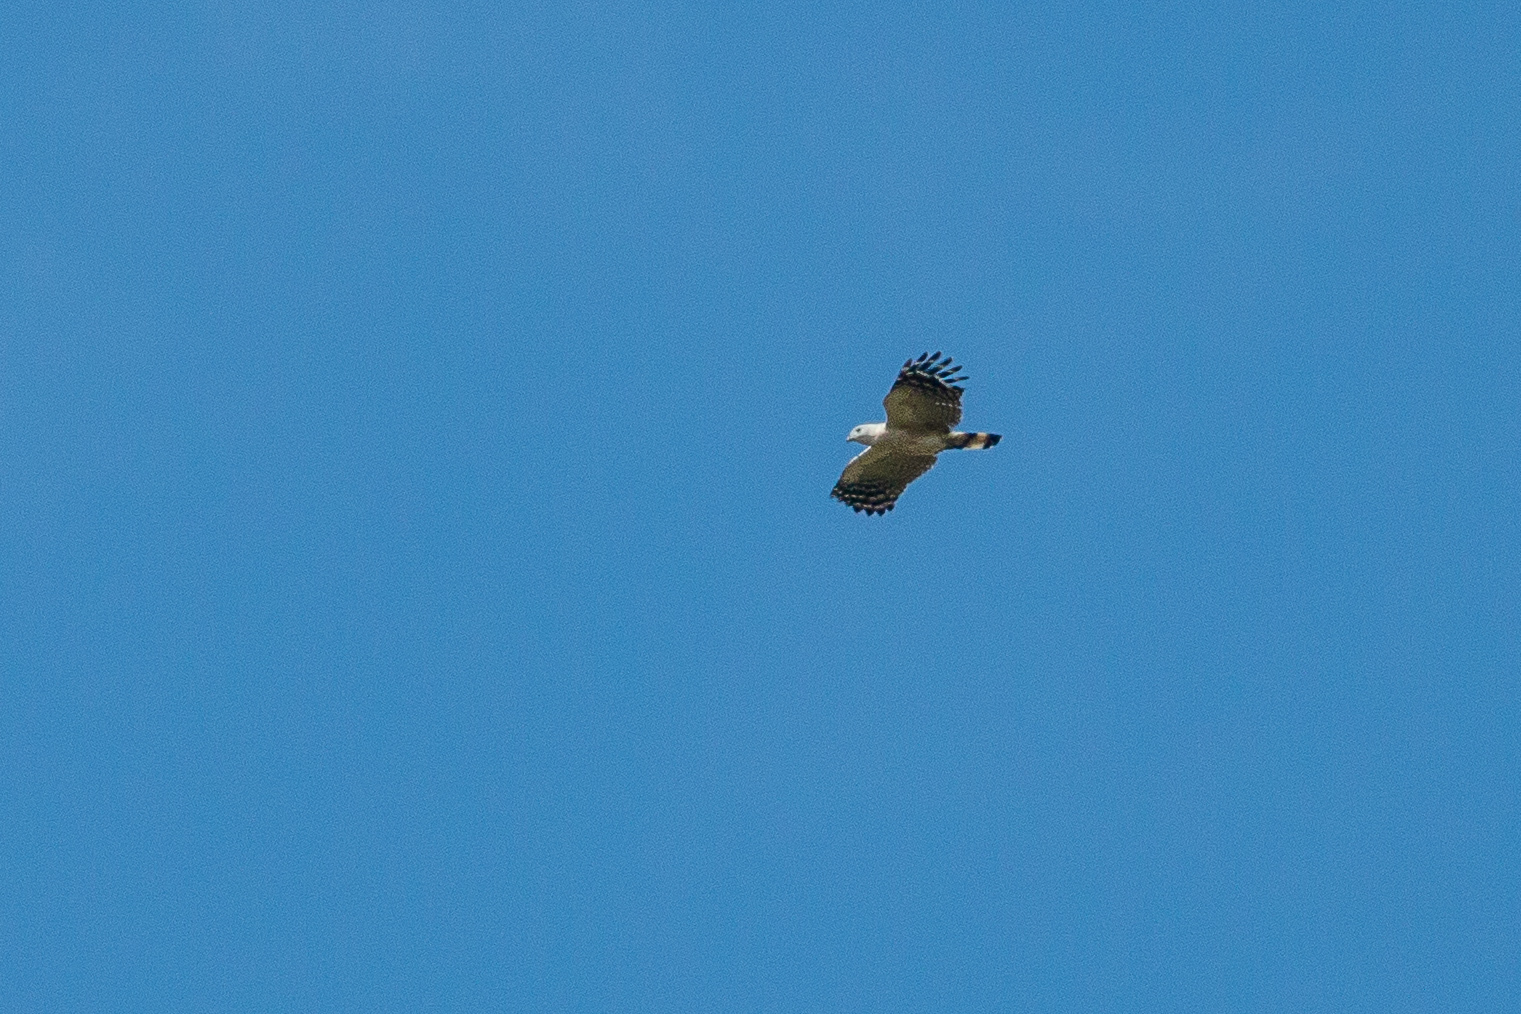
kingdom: Animalia
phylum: Chordata
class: Aves
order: Accipitriformes
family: Accipitridae
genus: Leptodon
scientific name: Leptodon forbesi
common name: White-collared kite
